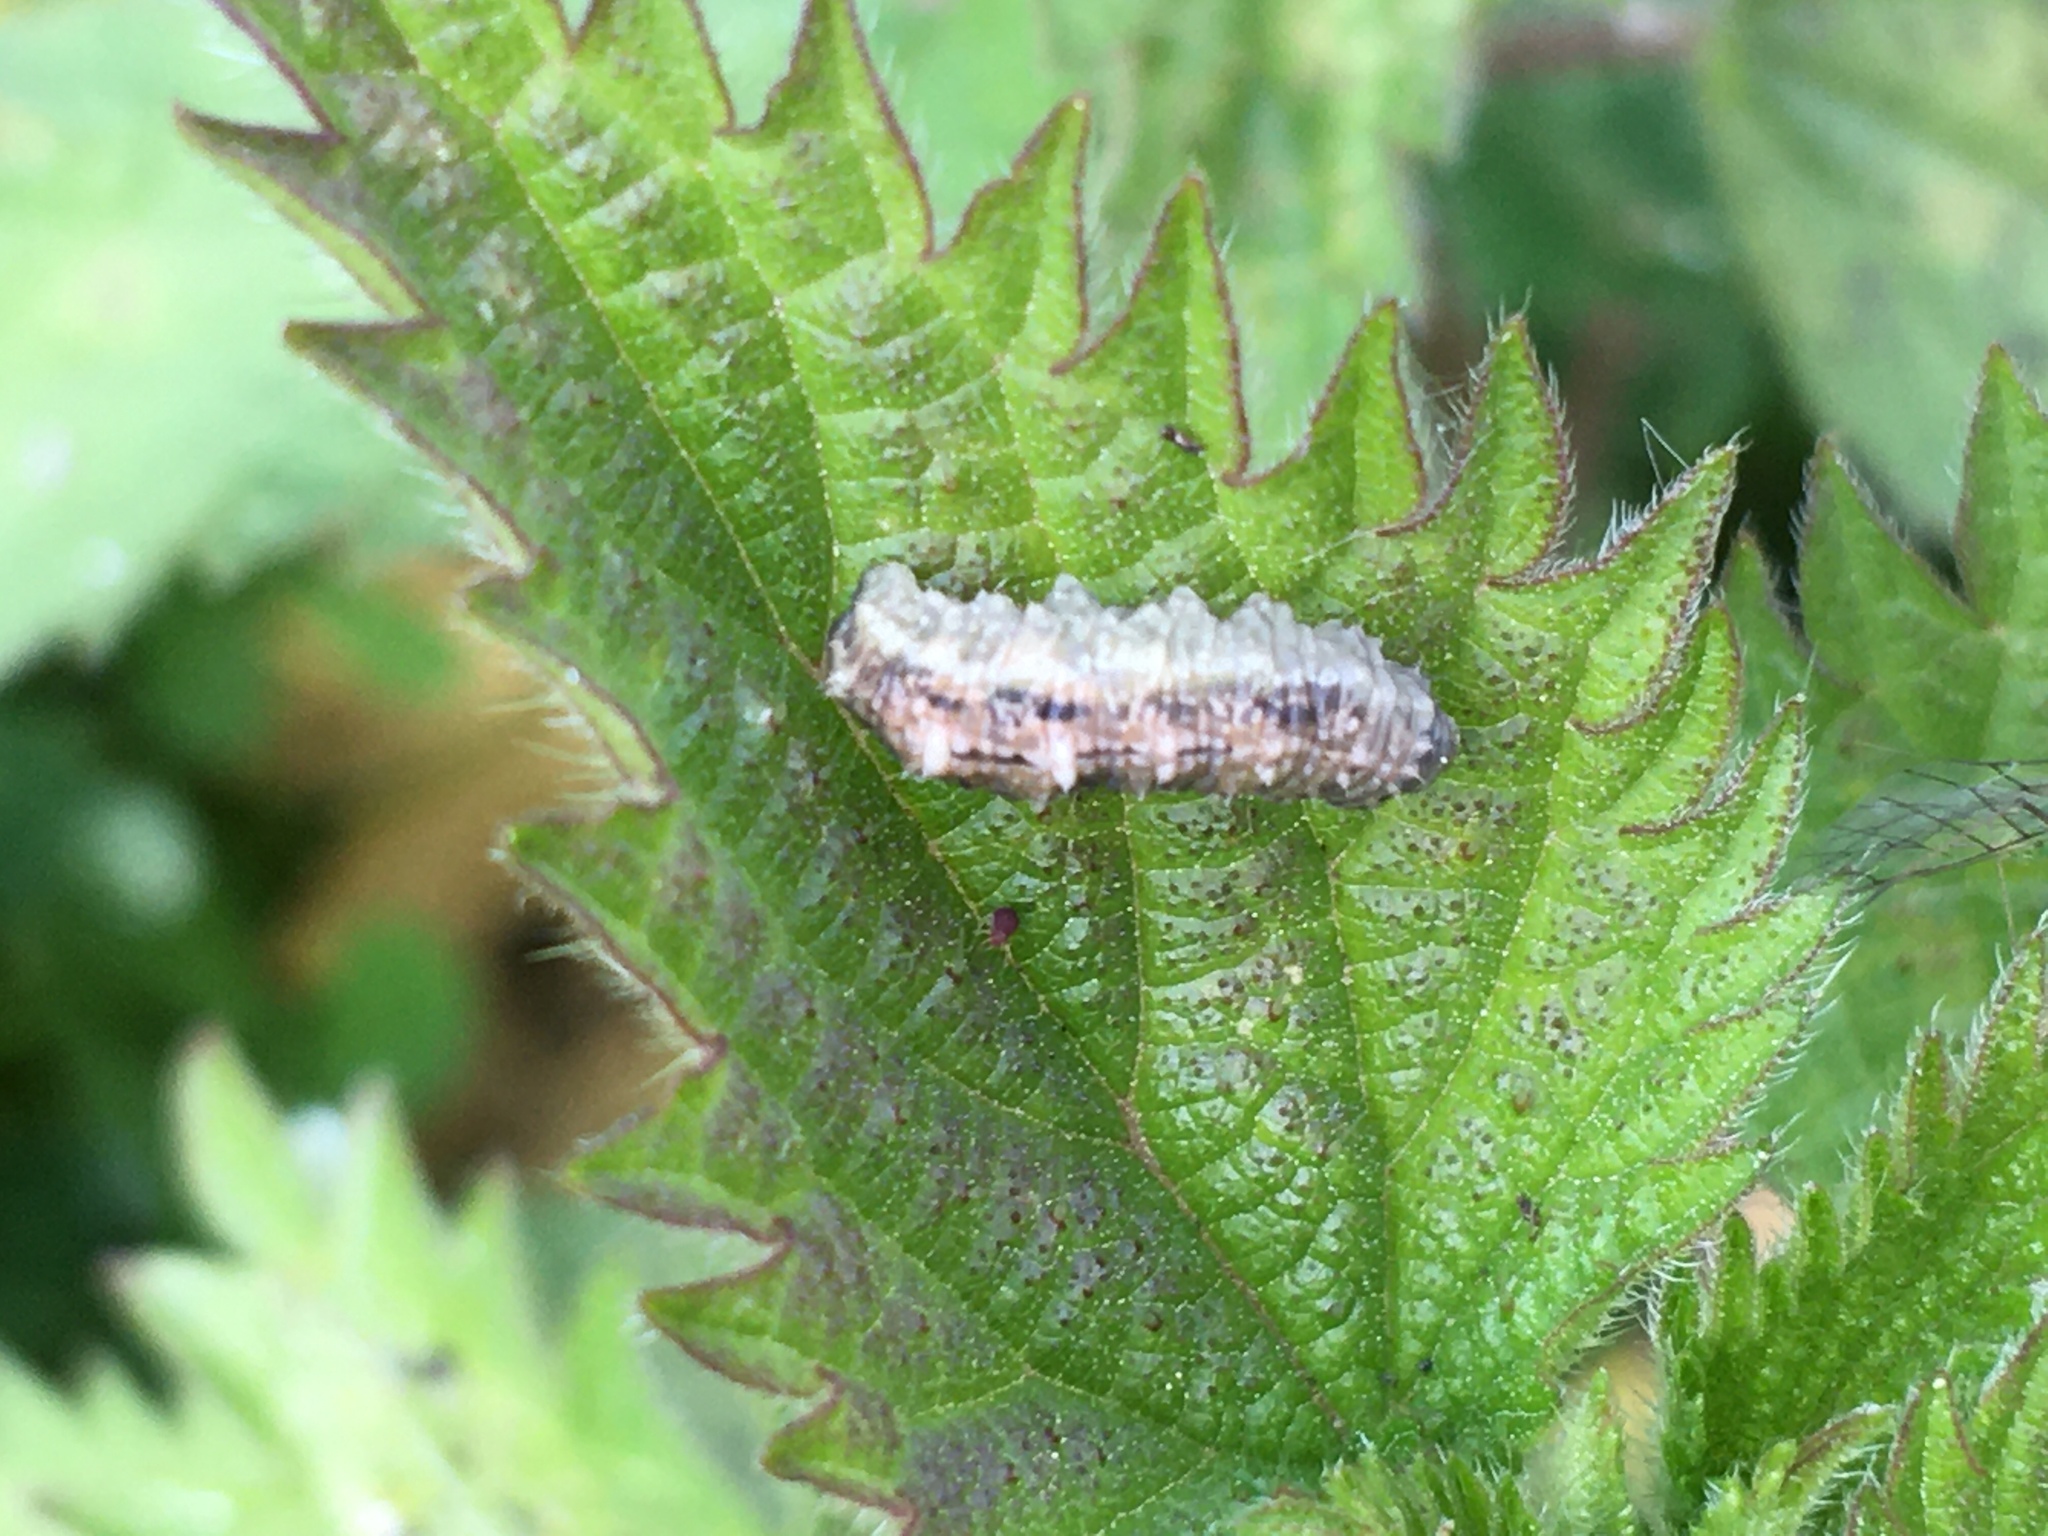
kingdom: Animalia
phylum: Arthropoda
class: Insecta
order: Diptera
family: Syrphidae
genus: Eupeodes
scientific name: Eupeodes
